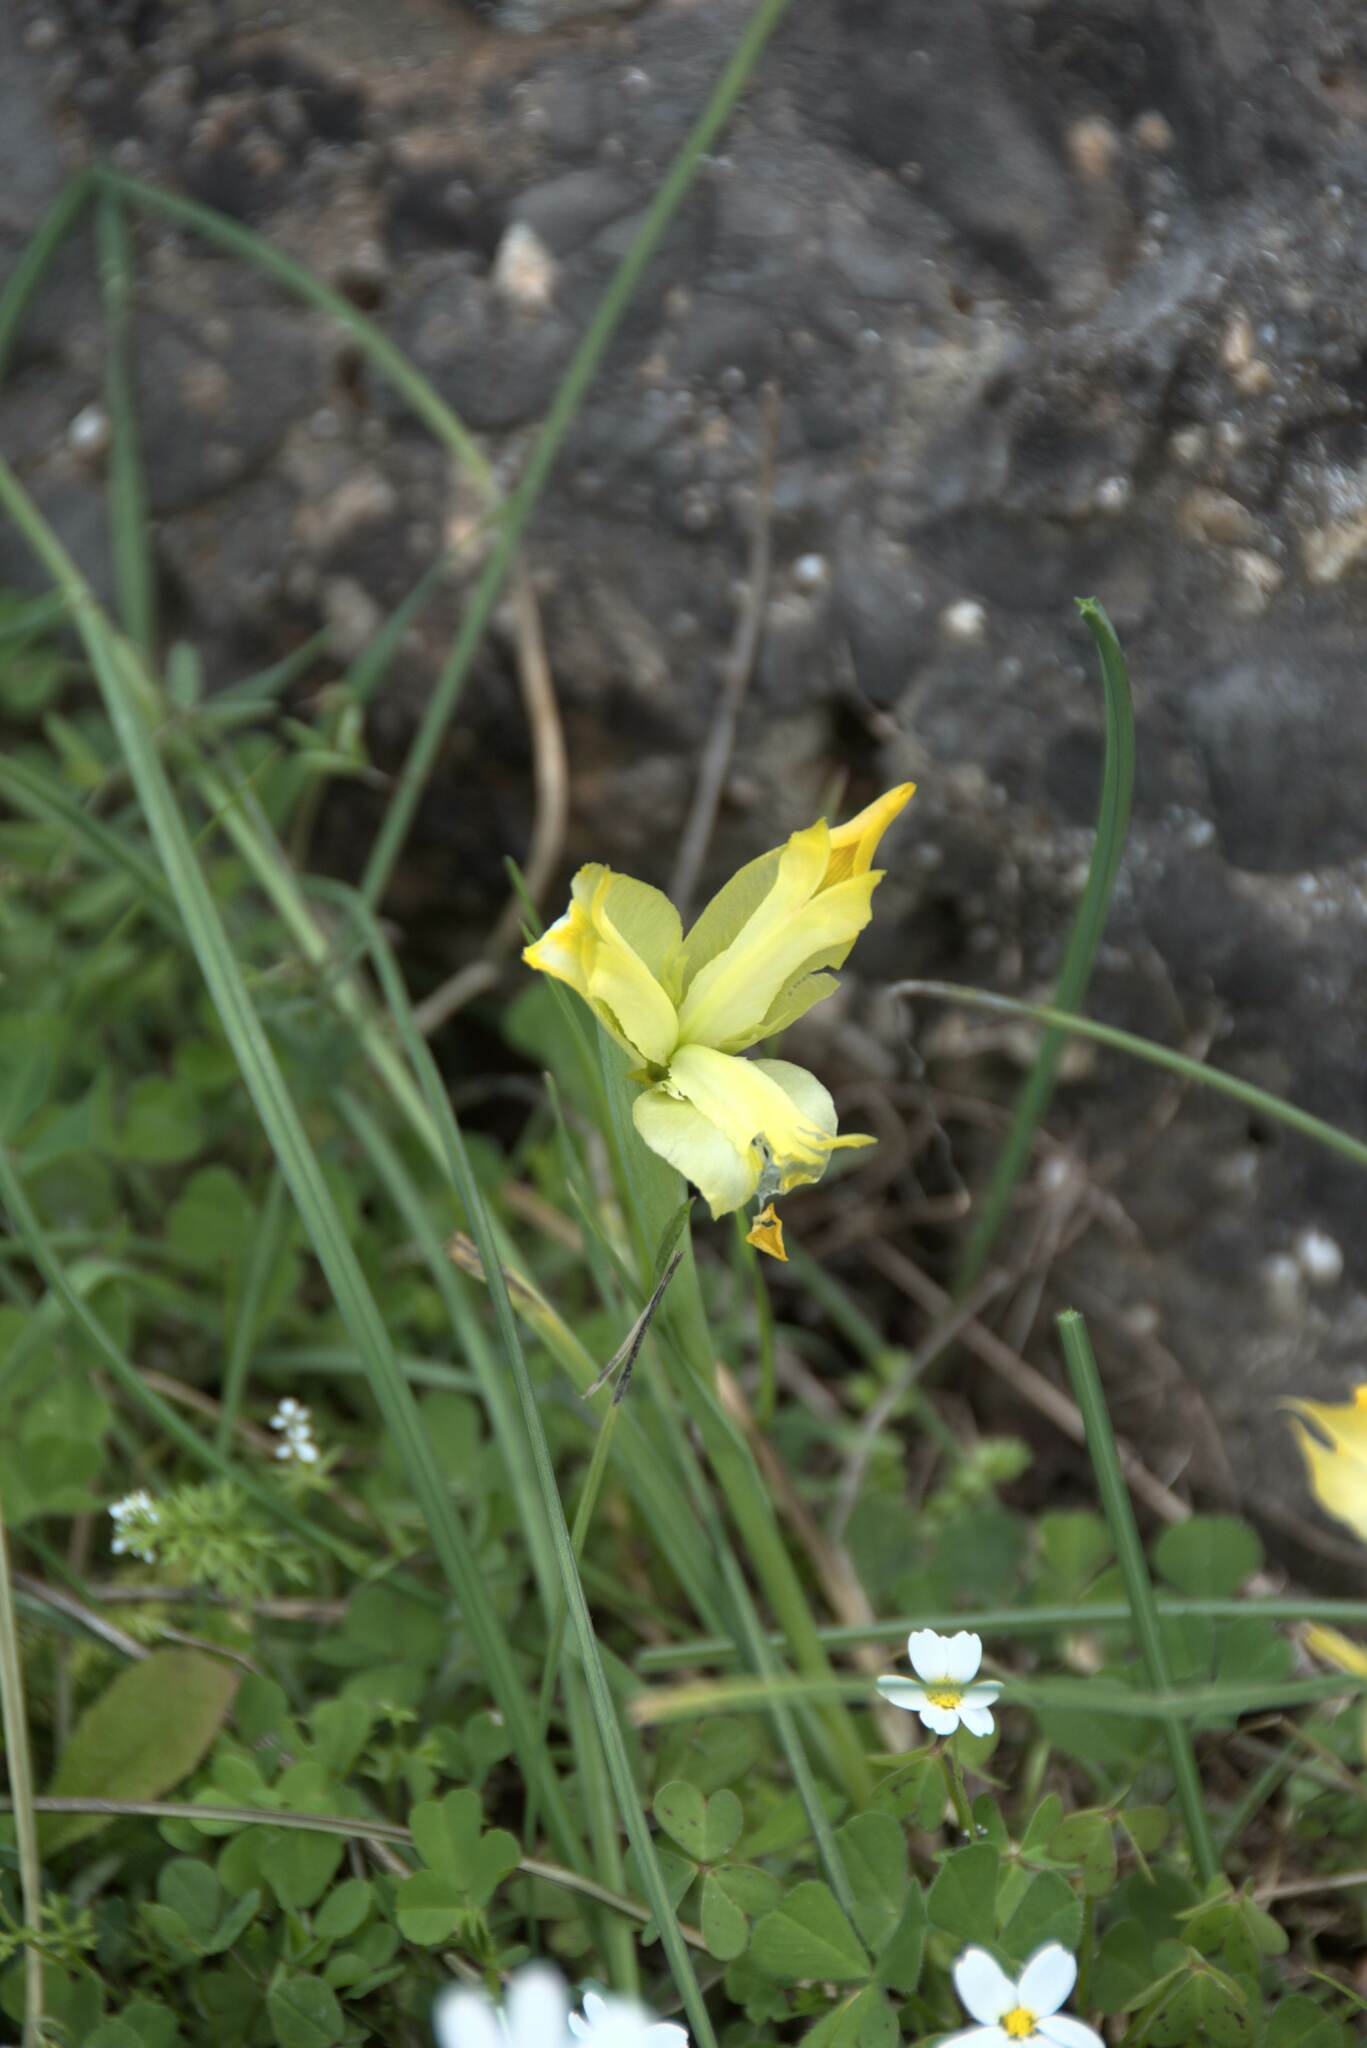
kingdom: Plantae
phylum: Tracheophyta
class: Liliopsida
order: Asparagales
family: Iridaceae
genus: Iris
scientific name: Iris tuberosa
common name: Snake's-head iris
